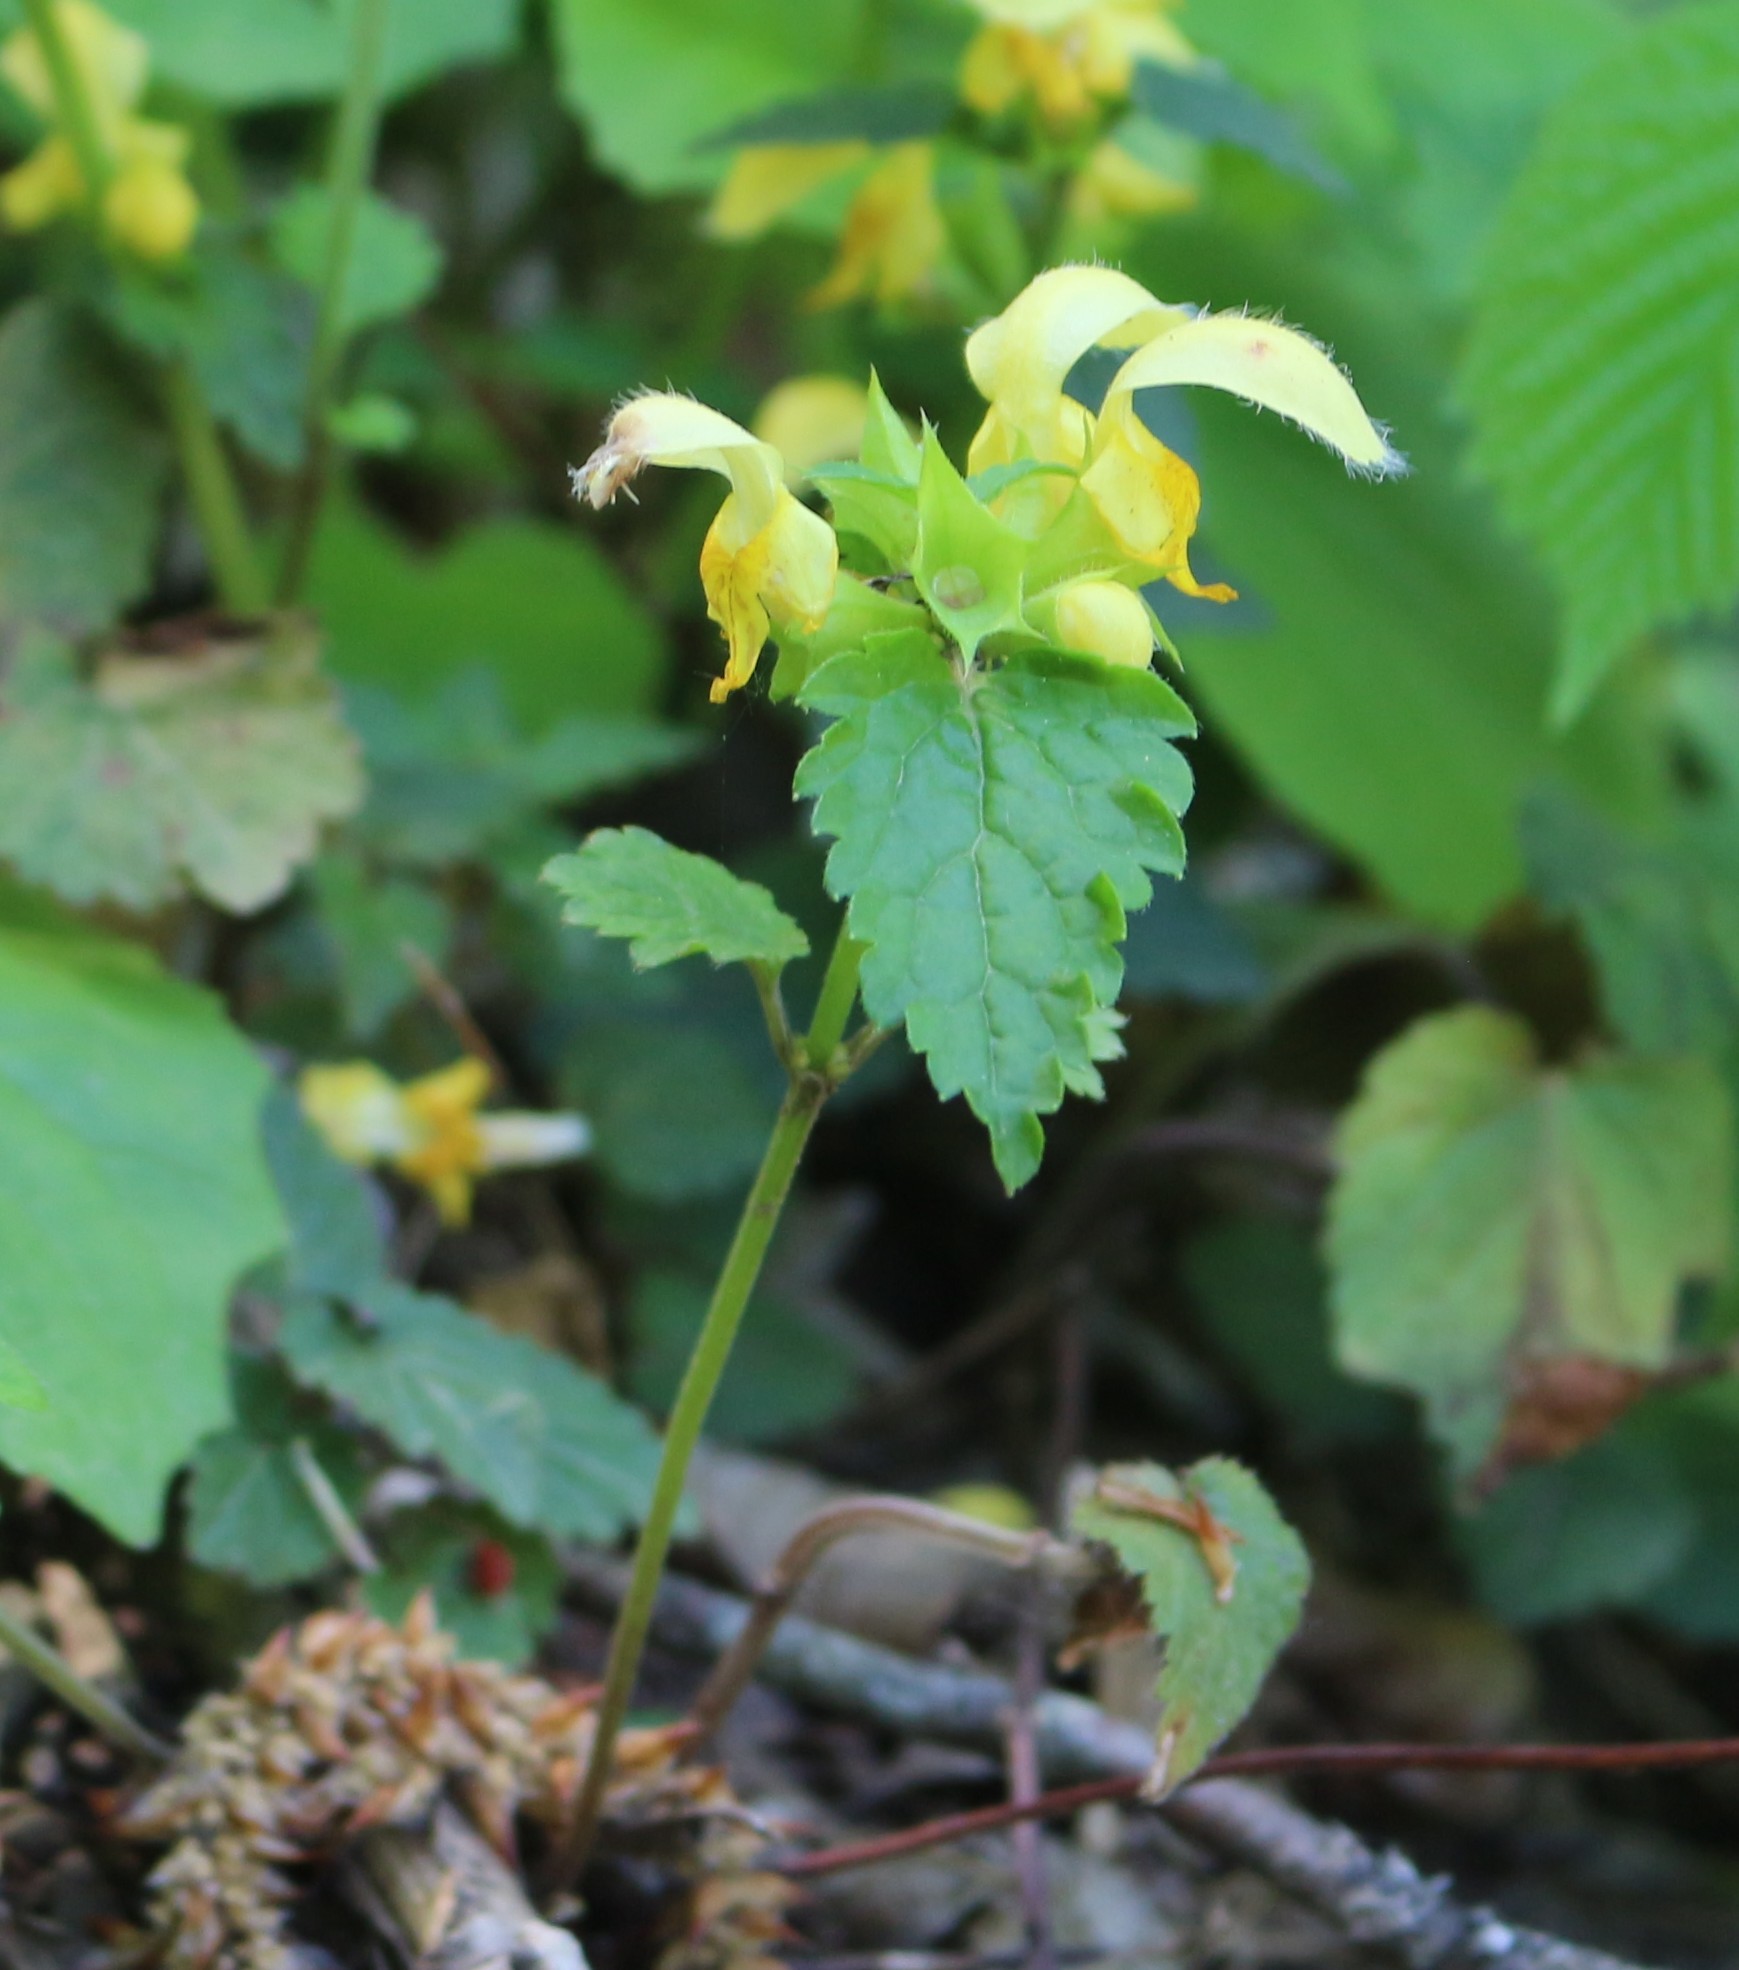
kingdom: Plantae
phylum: Tracheophyta
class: Magnoliopsida
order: Lamiales
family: Lamiaceae
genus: Lamium
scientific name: Lamium galeobdolon
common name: Yellow archangel
